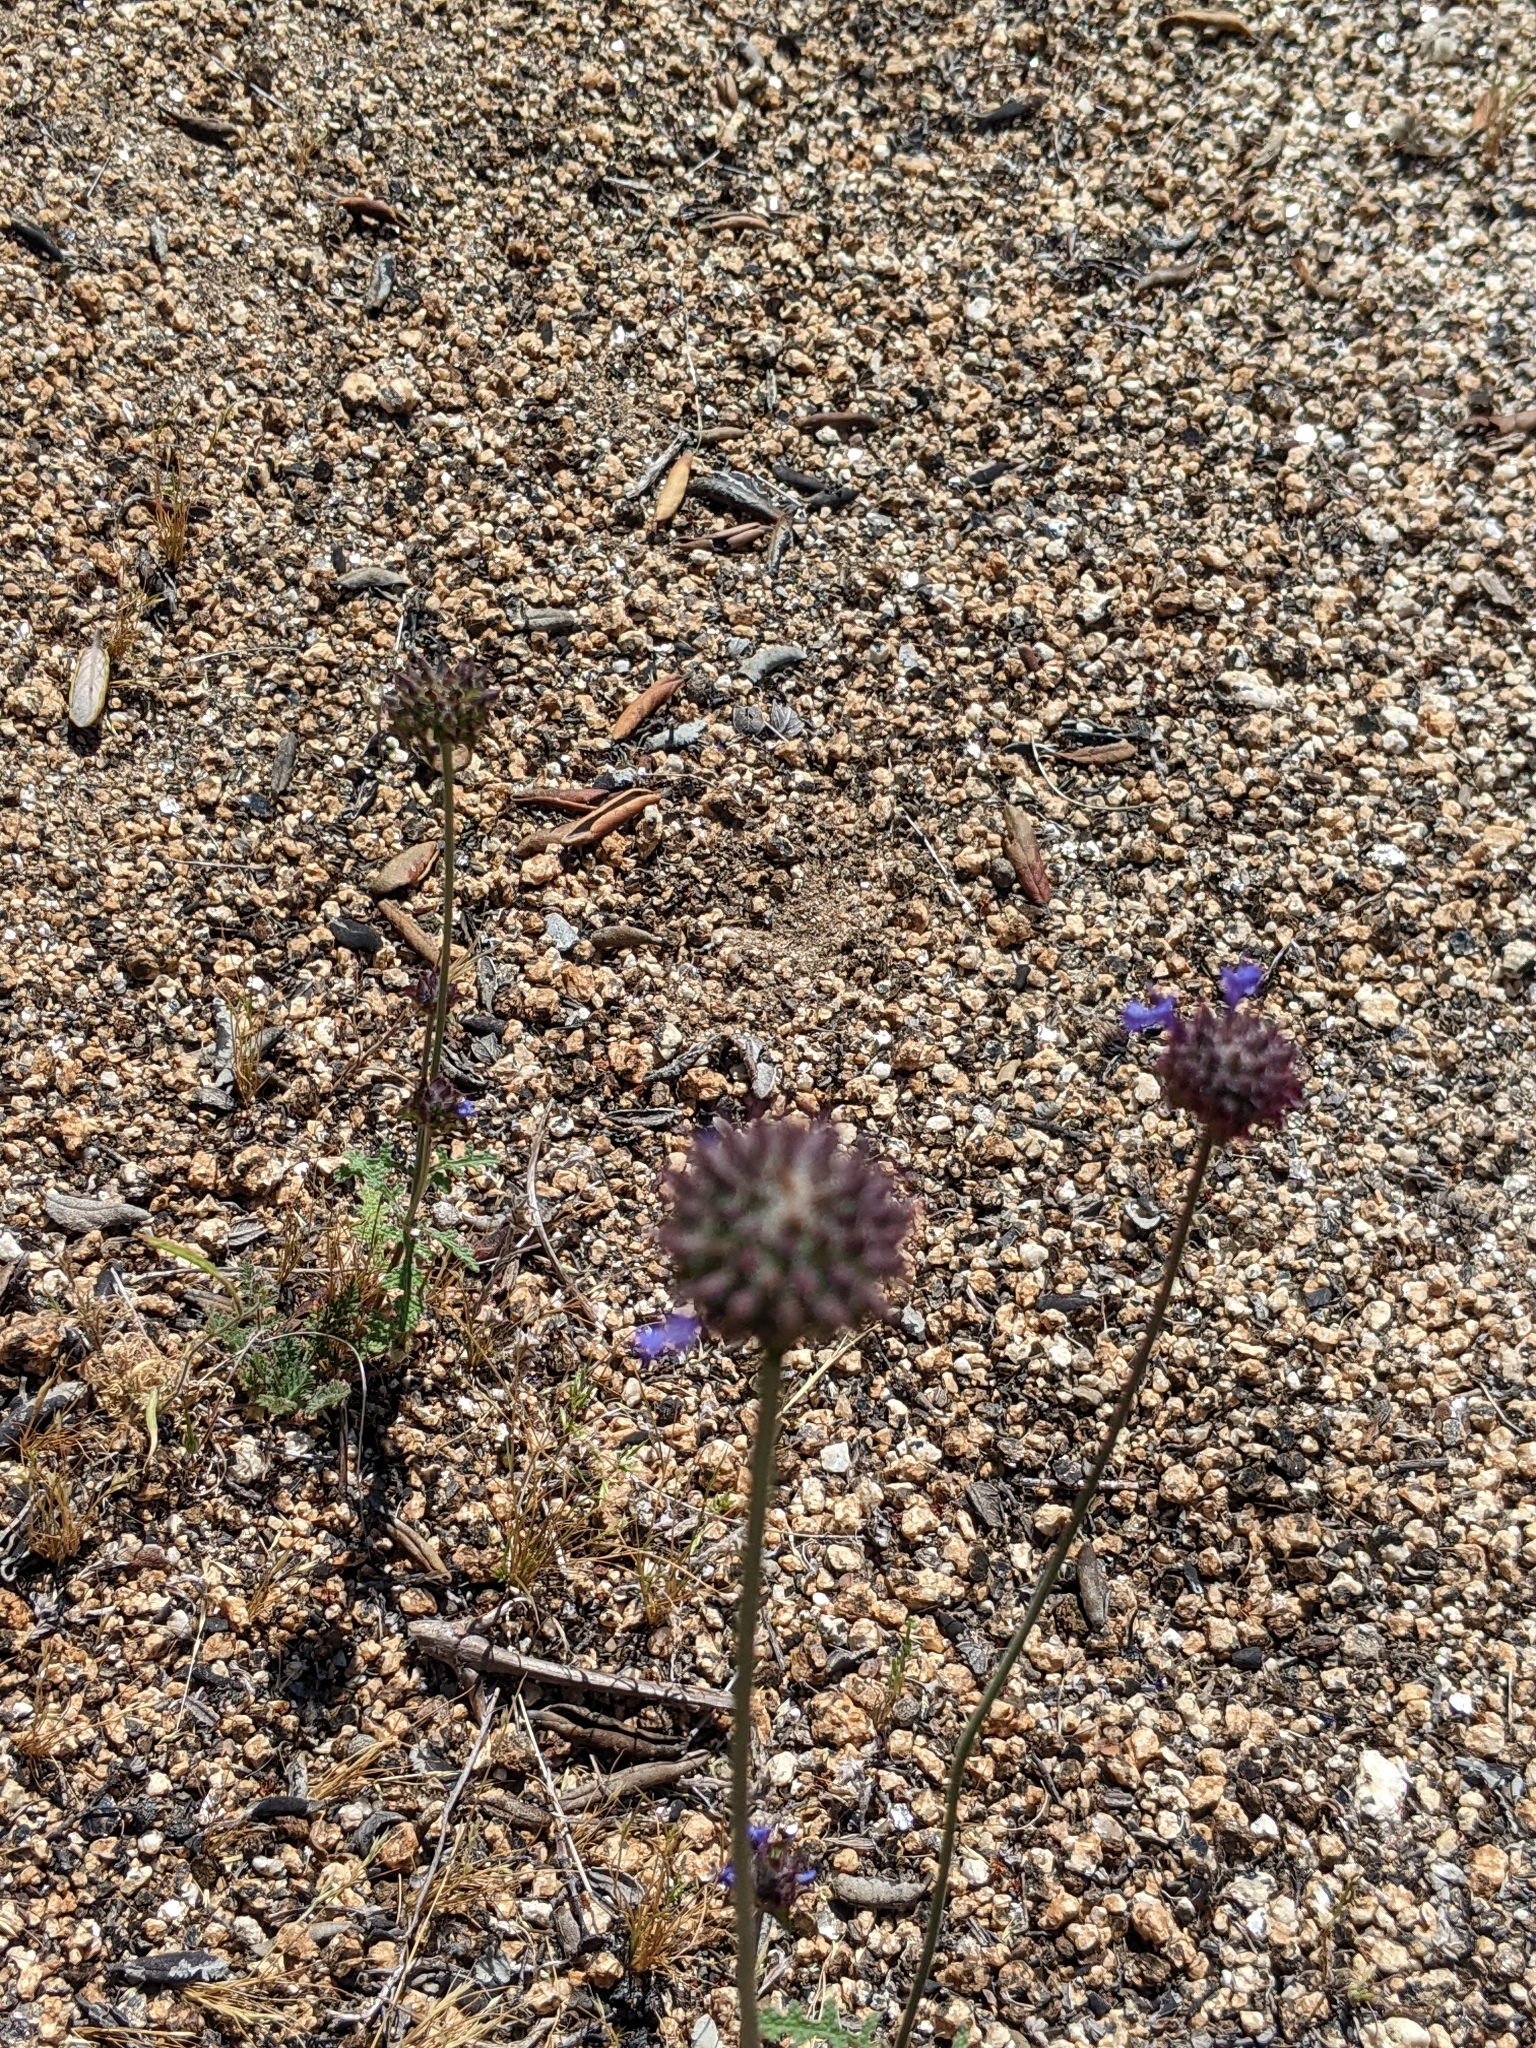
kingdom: Plantae
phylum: Tracheophyta
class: Magnoliopsida
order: Lamiales
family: Lamiaceae
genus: Salvia
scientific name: Salvia columbariae
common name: Chia
